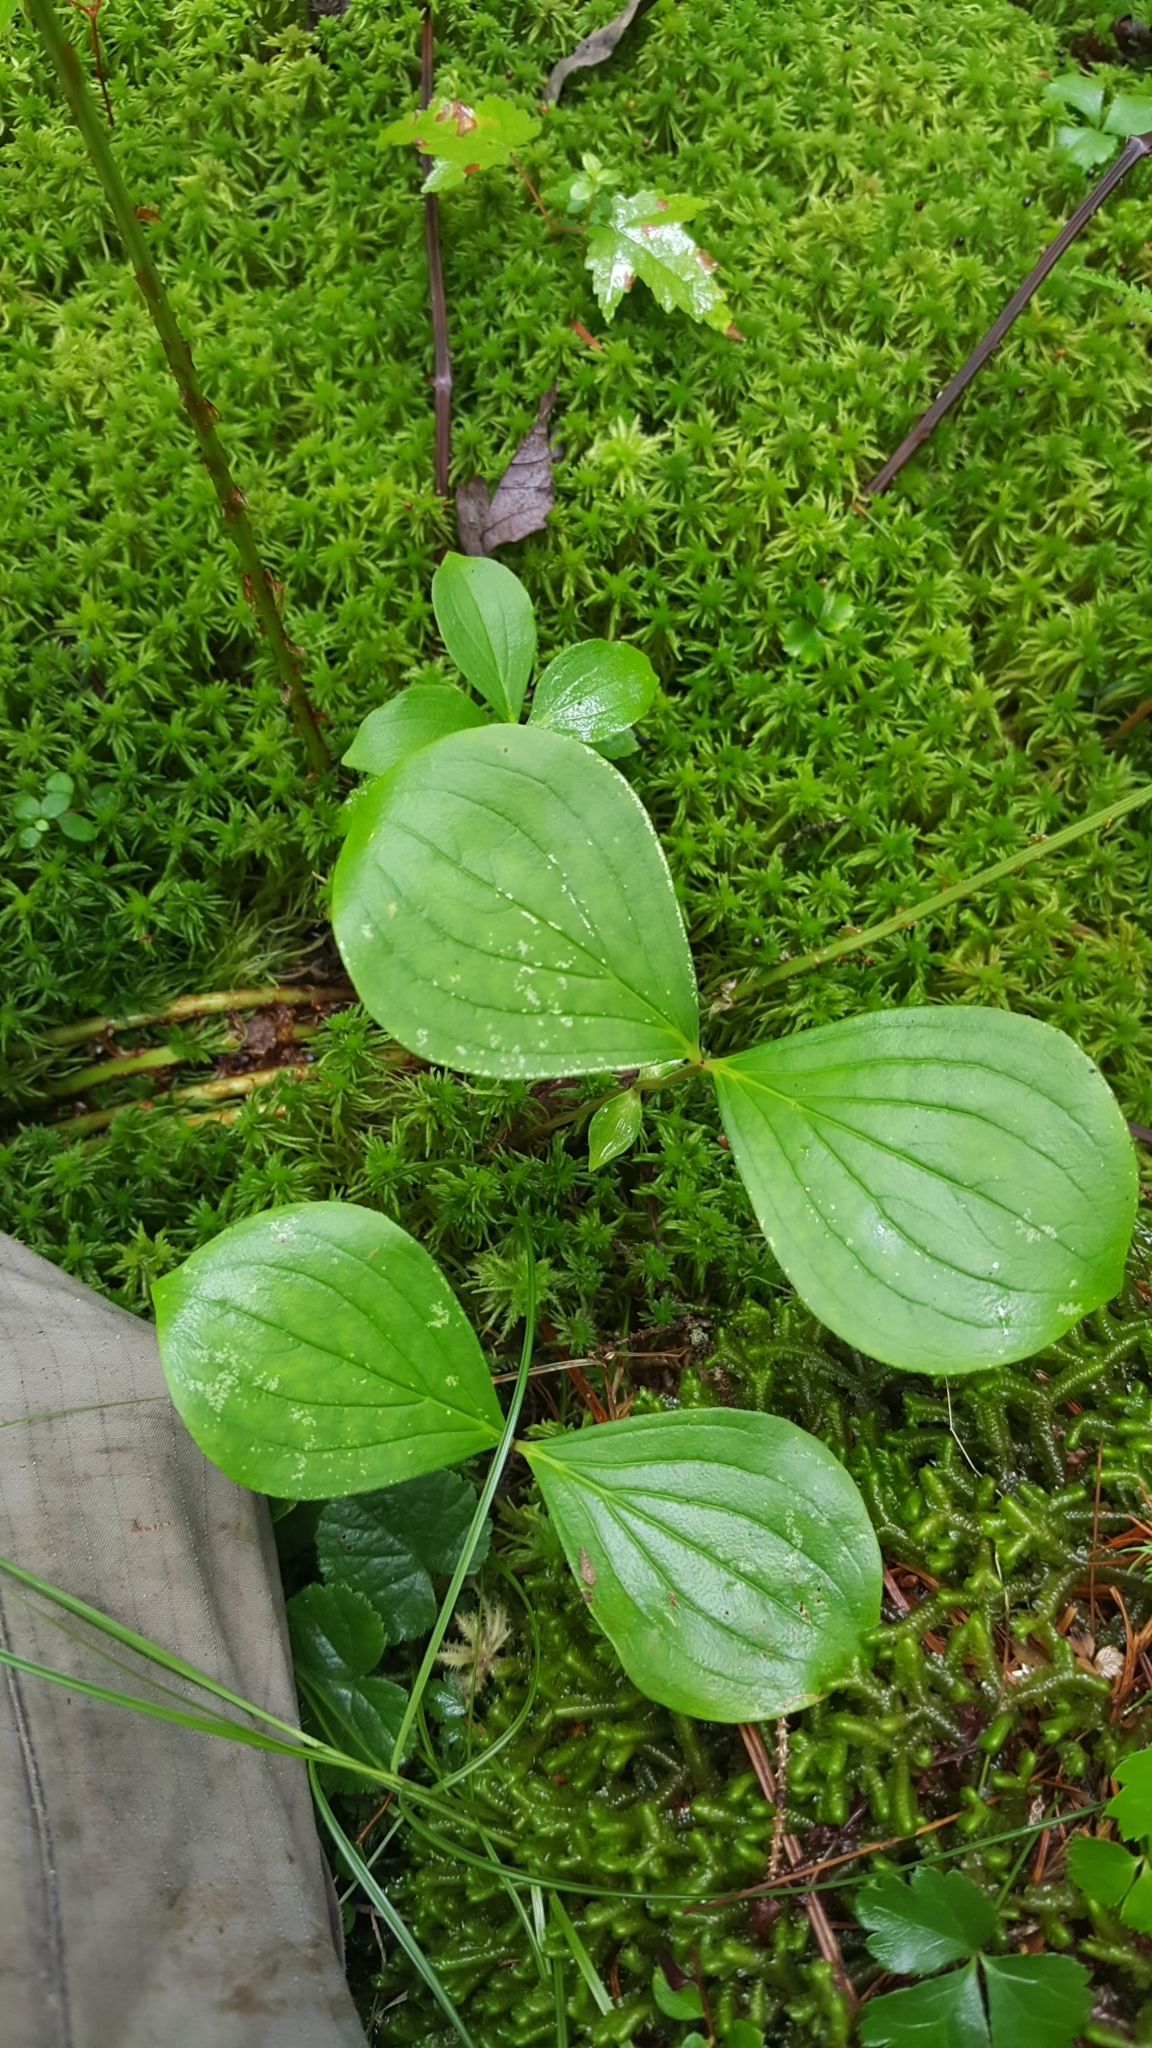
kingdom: Plantae
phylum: Tracheophyta
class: Magnoliopsida
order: Cornales
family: Cornaceae
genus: Cornus
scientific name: Cornus canadensis
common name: Creeping dogwood
